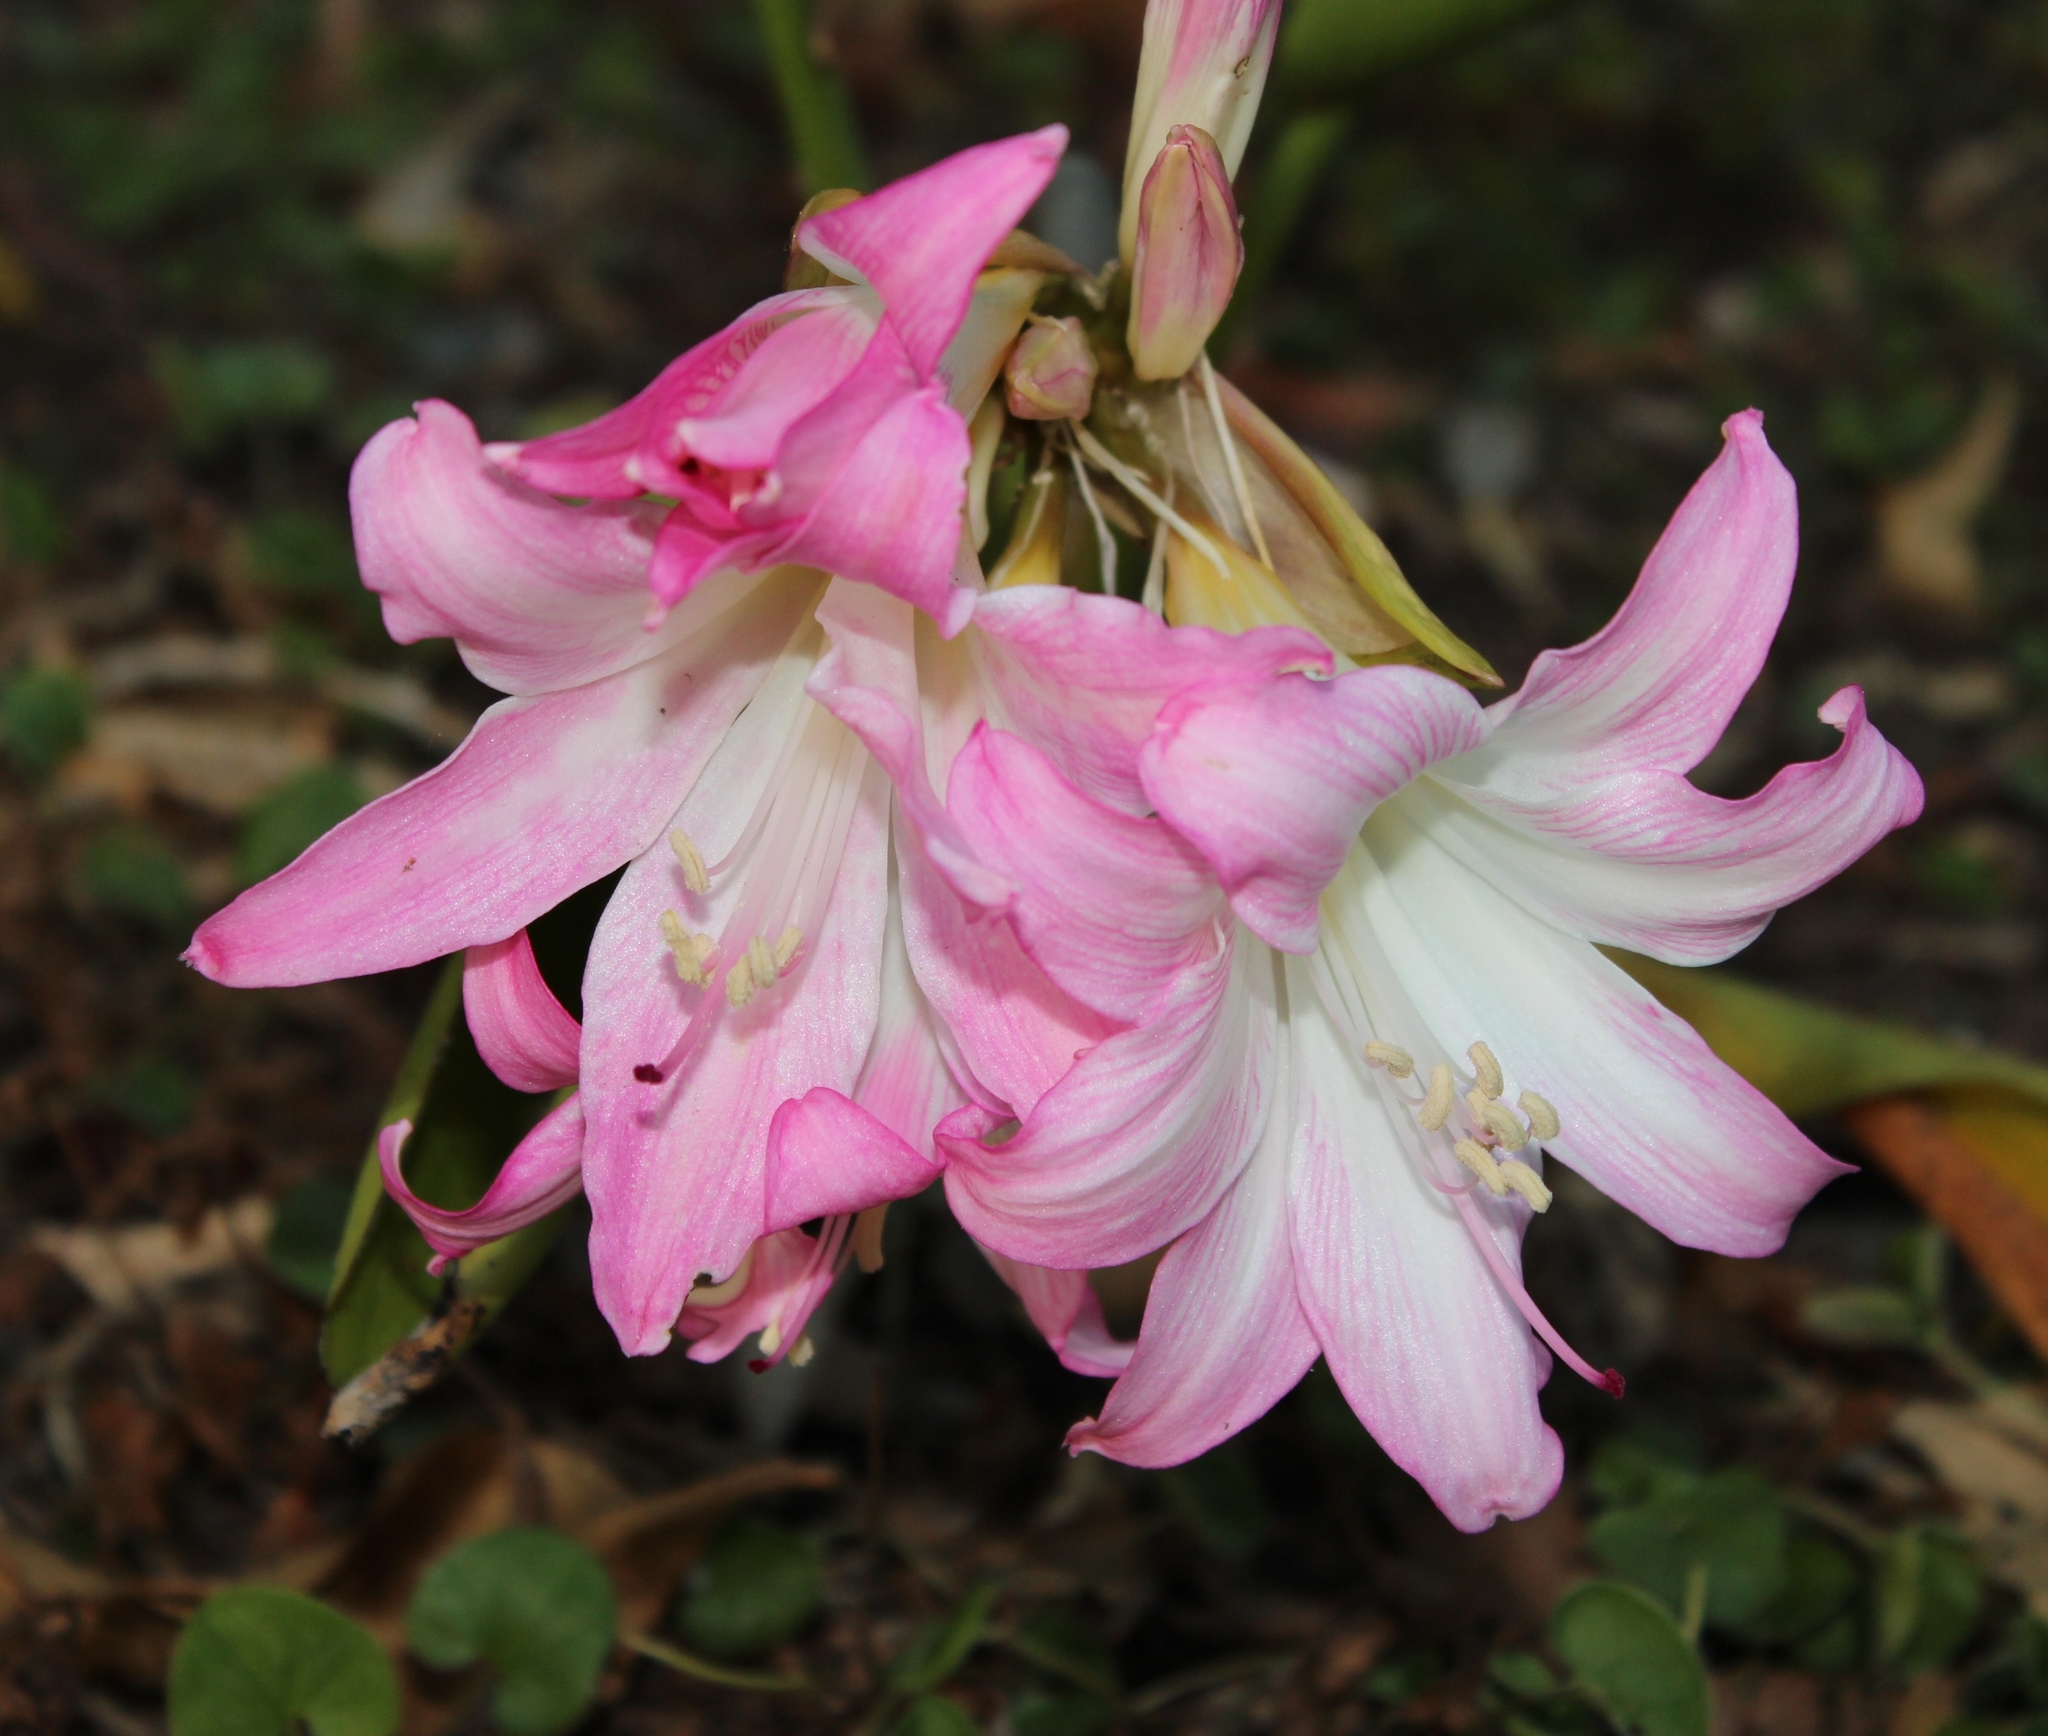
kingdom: Plantae
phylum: Tracheophyta
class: Liliopsida
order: Asparagales
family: Amaryllidaceae
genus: Amaryllis
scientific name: Amaryllis belladonna
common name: Jersey lily
